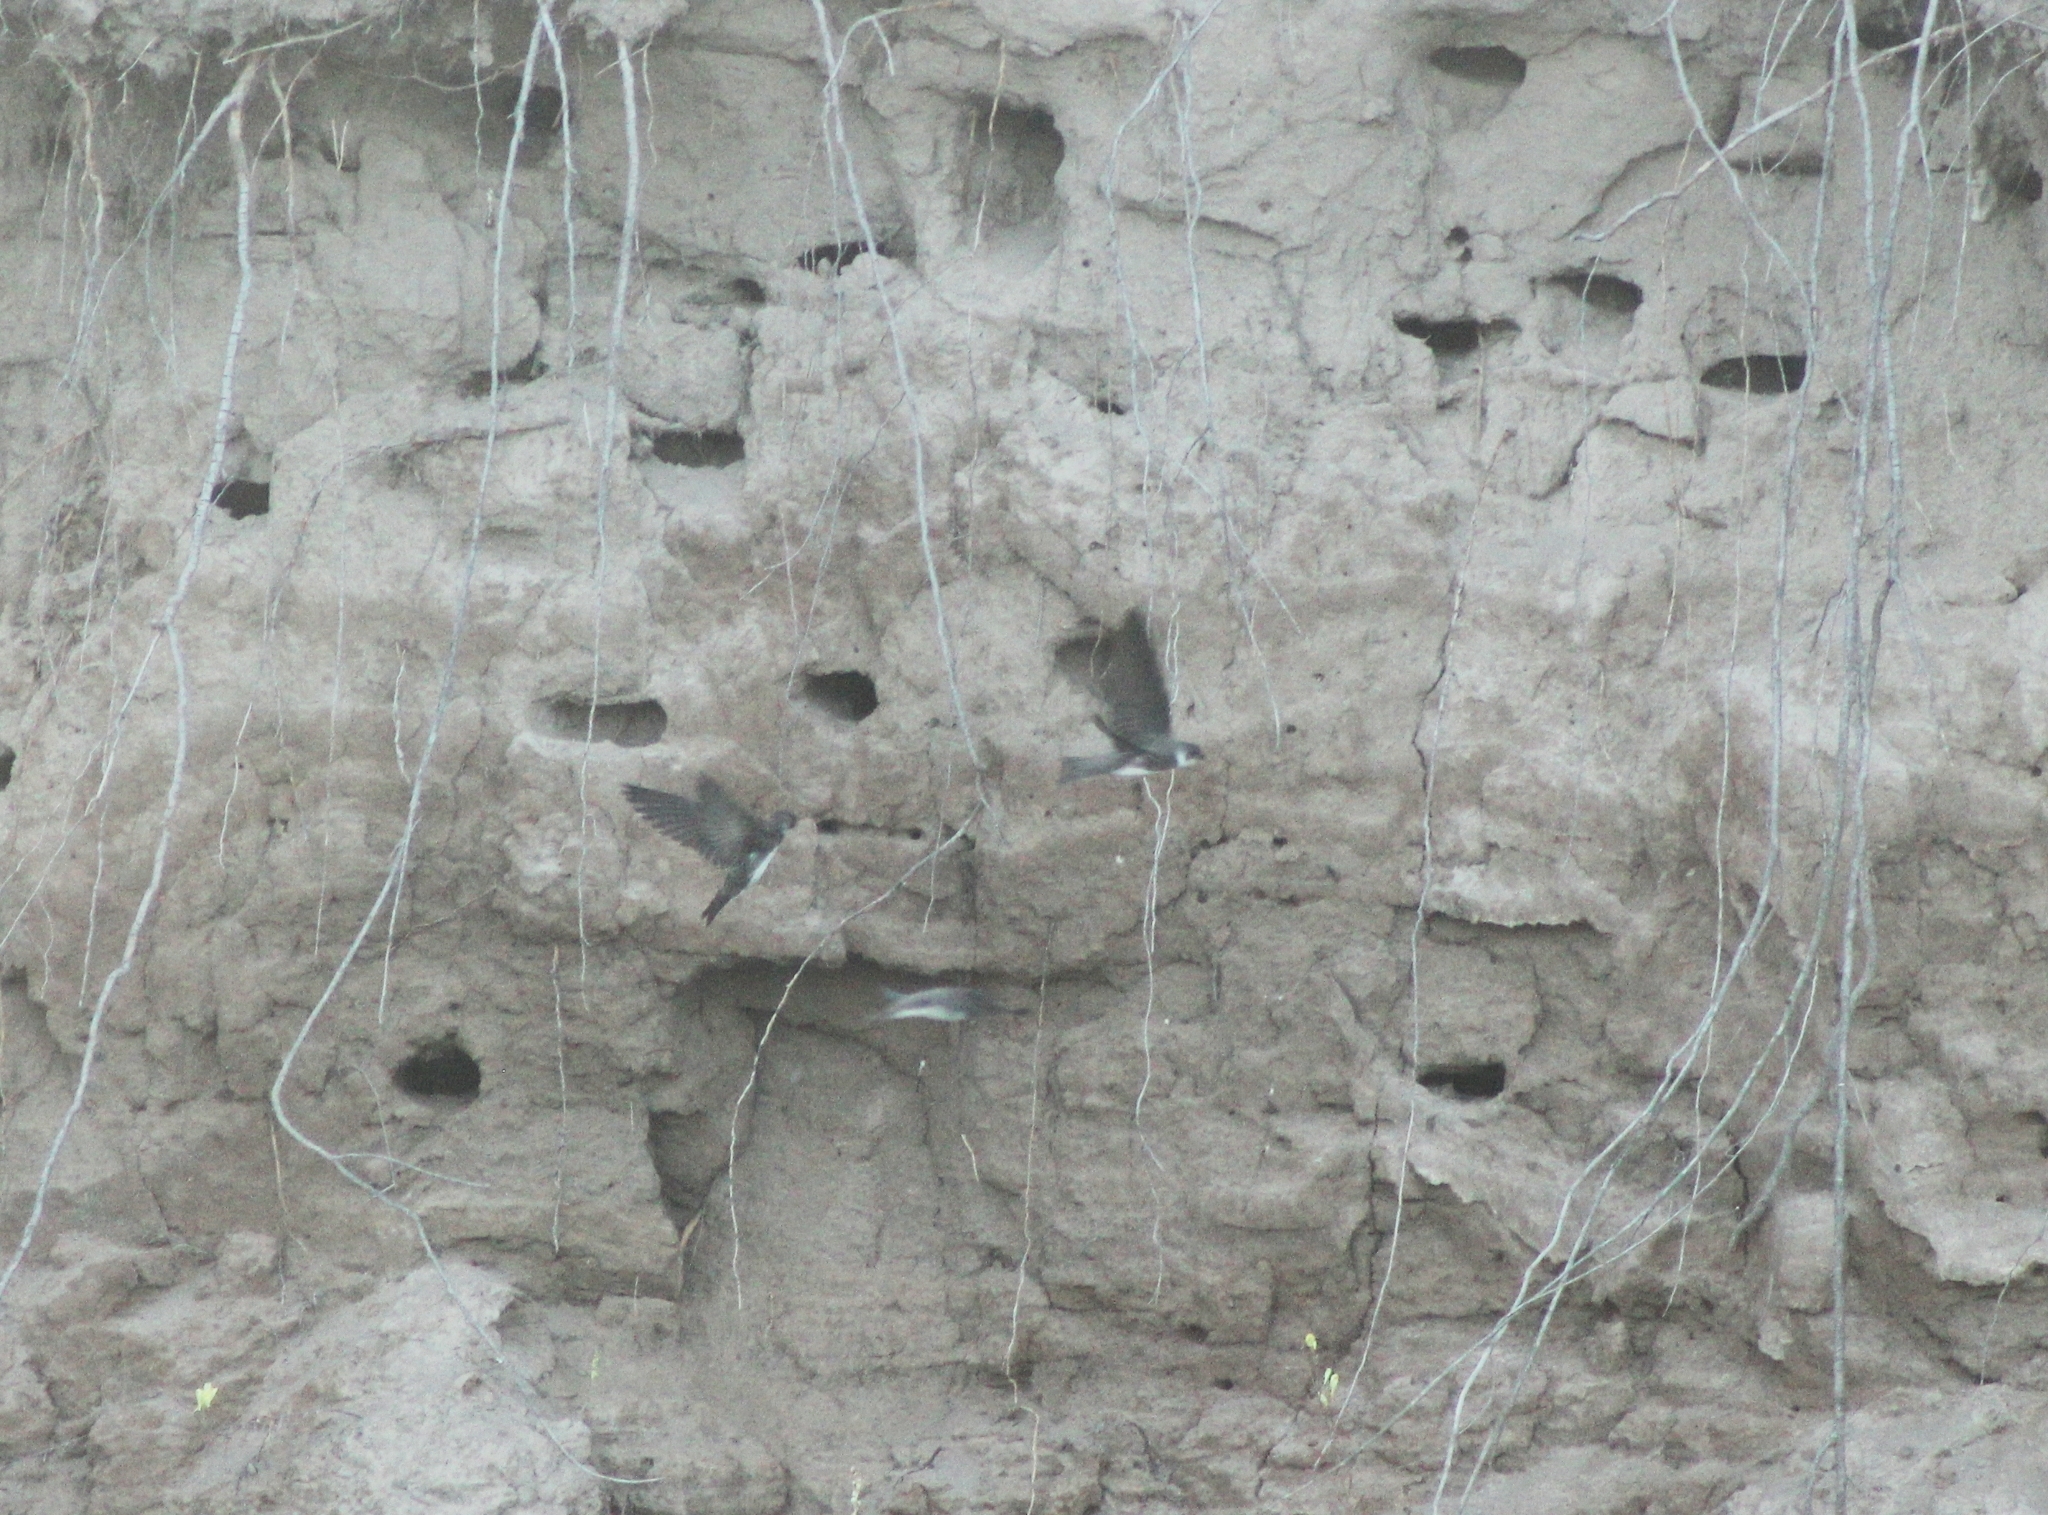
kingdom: Animalia
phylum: Chordata
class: Aves
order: Passeriformes
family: Hirundinidae
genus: Riparia
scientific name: Riparia riparia
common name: Sand martin
